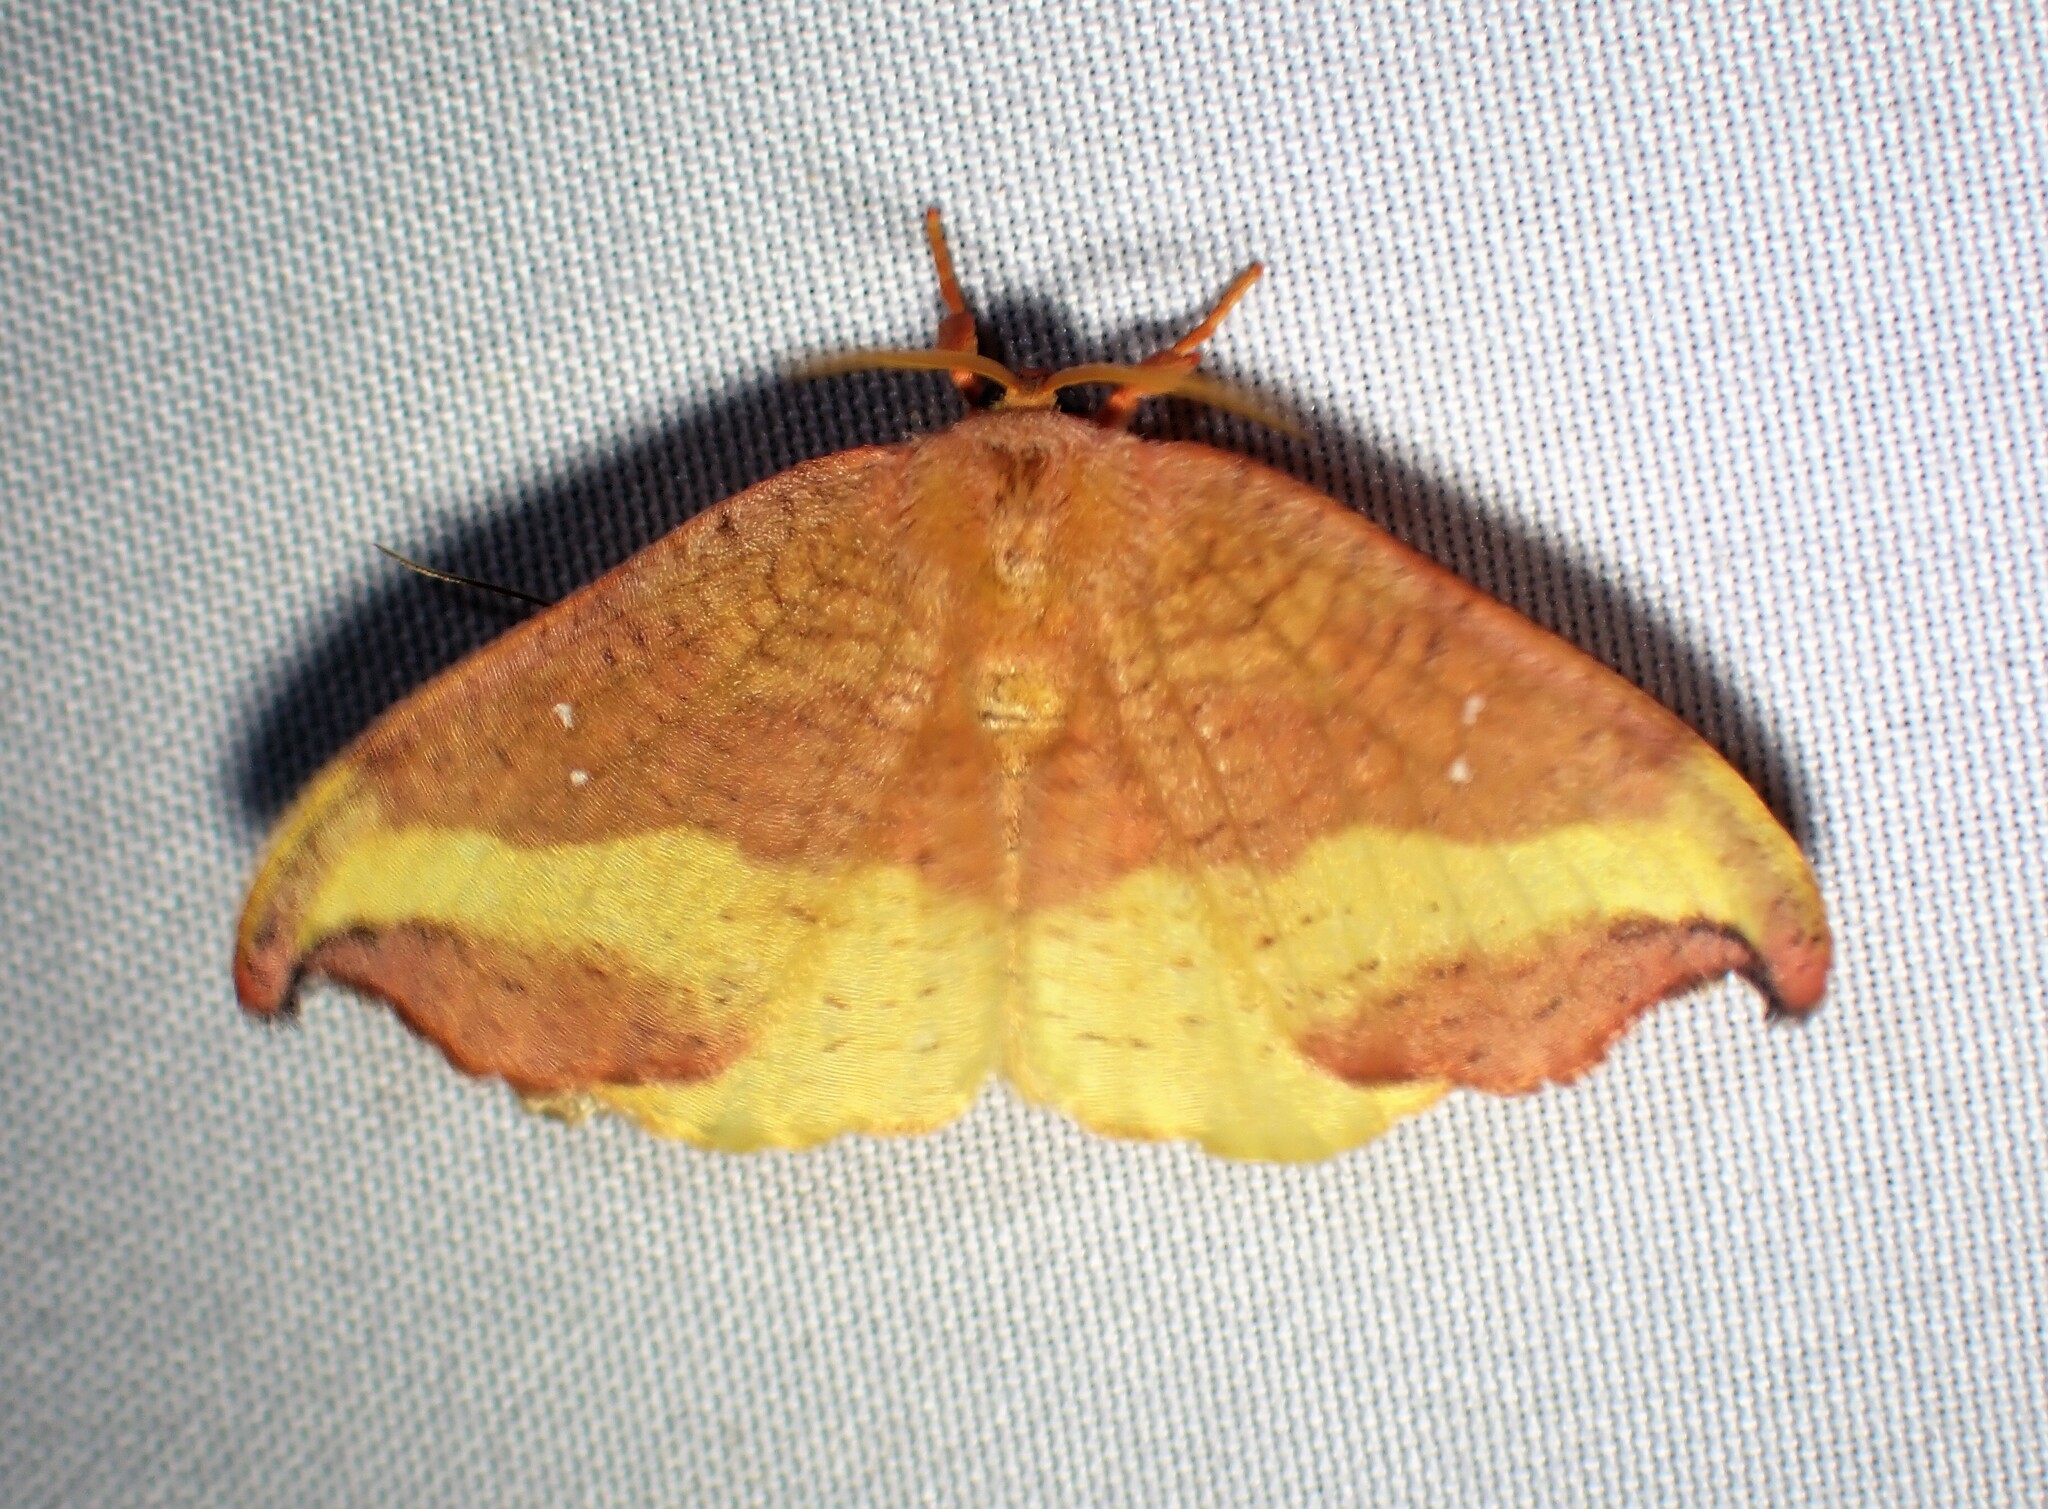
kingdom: Animalia
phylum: Arthropoda
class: Insecta
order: Lepidoptera
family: Drepanidae
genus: Oreta
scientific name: Oreta rosea
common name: Rose hooktip
